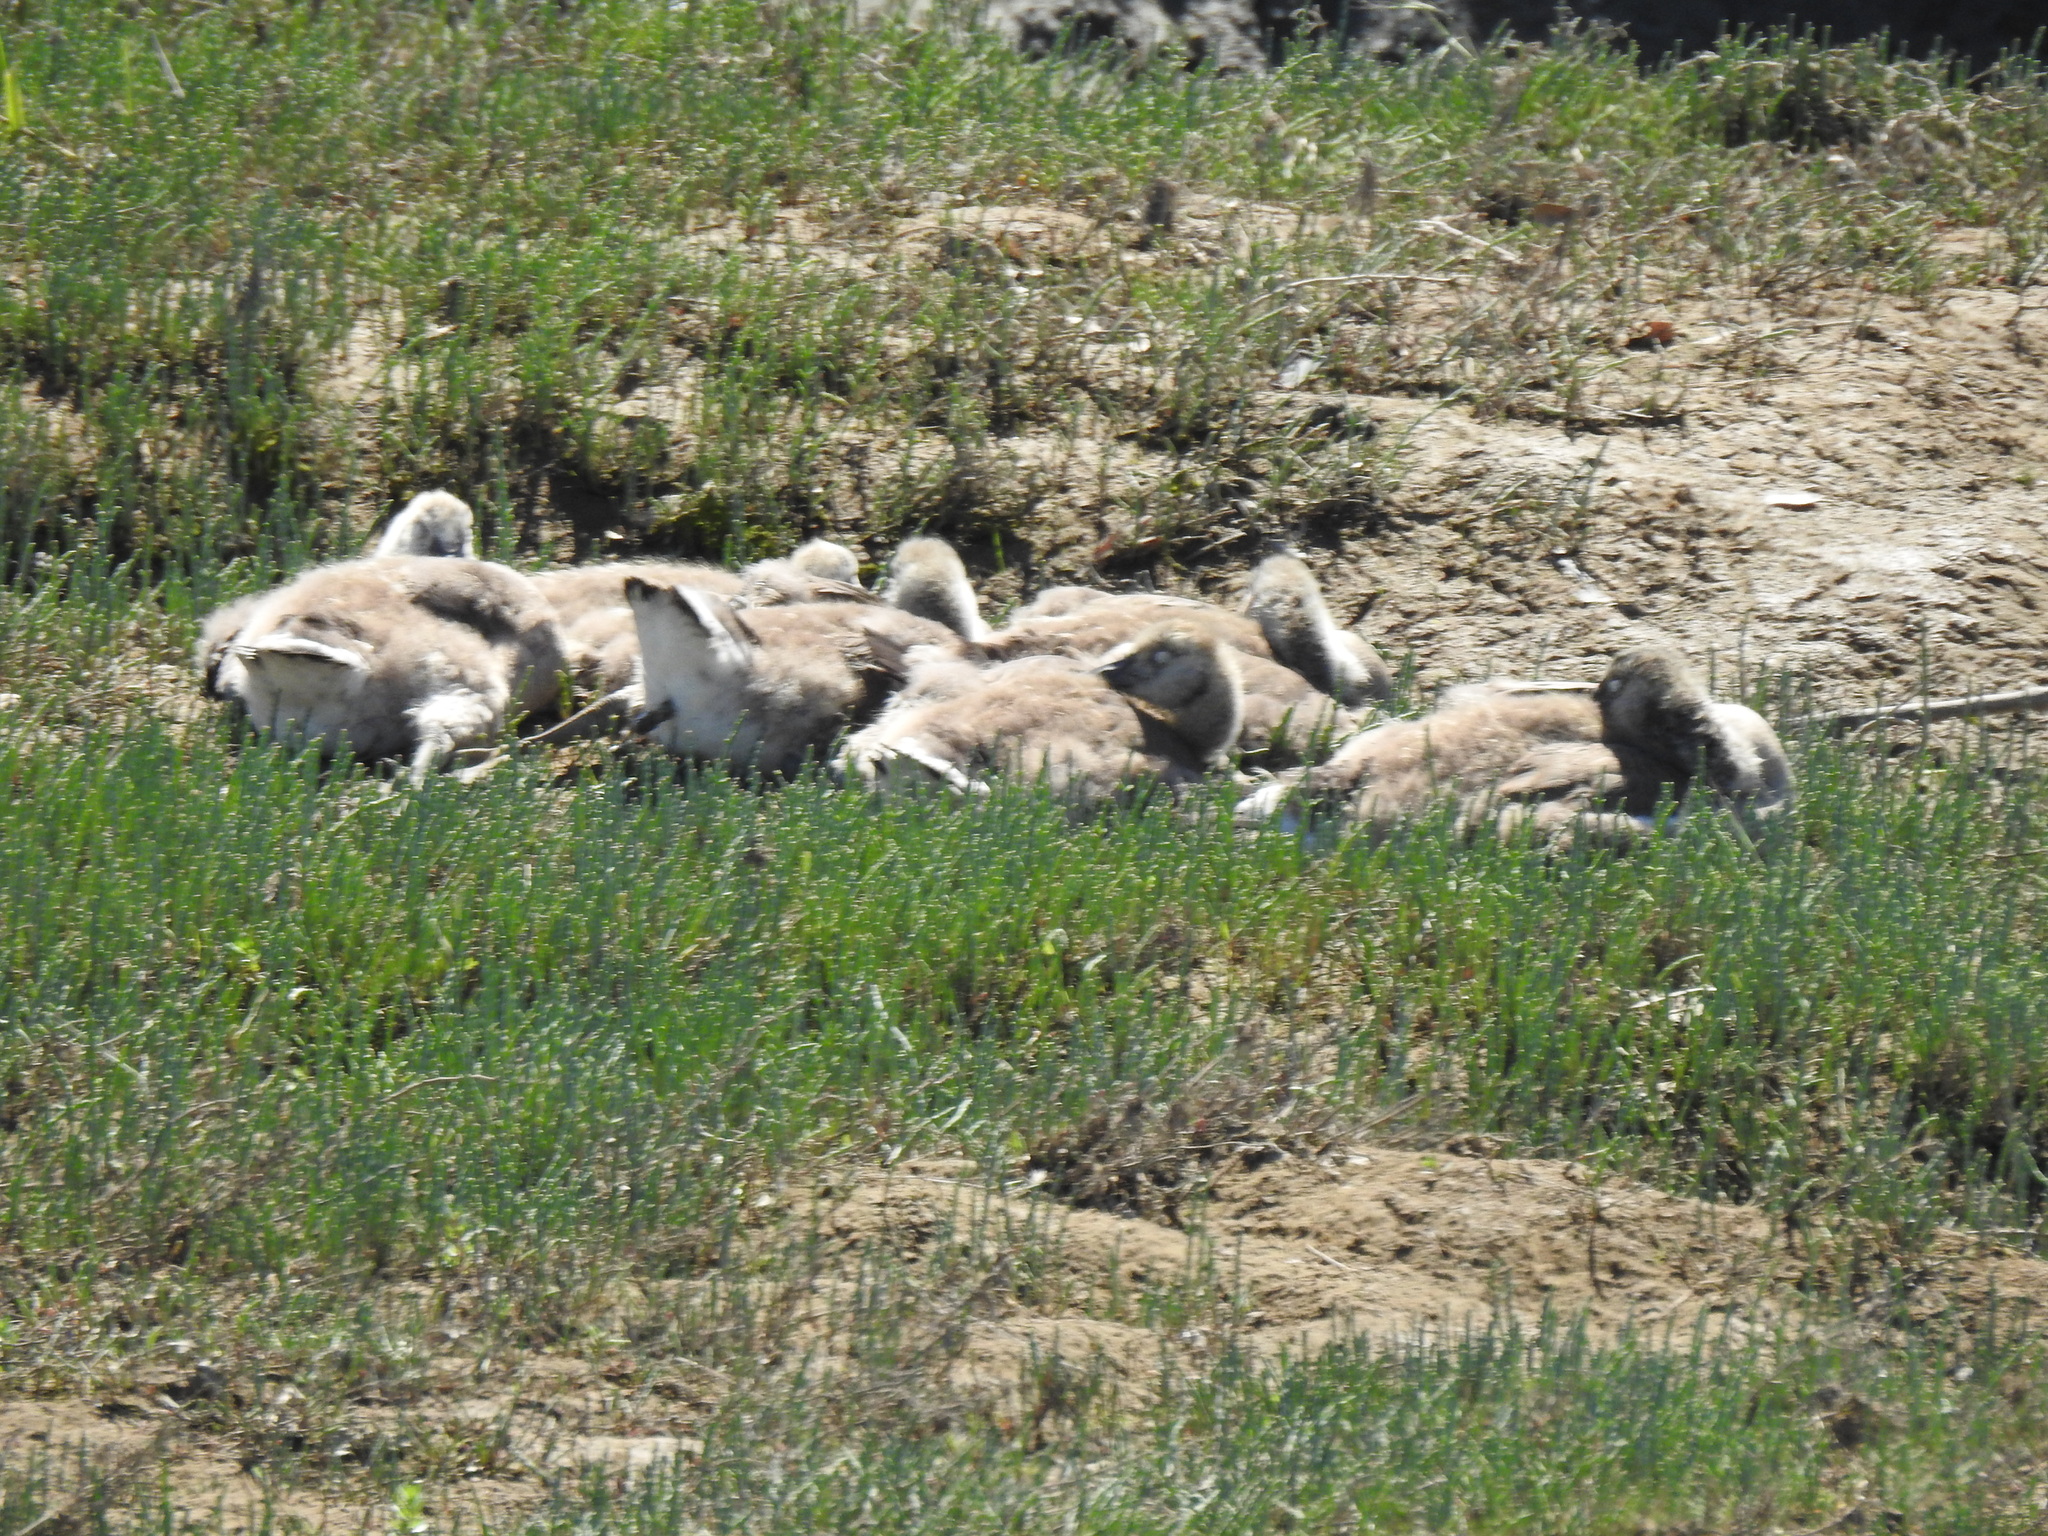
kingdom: Animalia
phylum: Chordata
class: Aves
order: Anseriformes
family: Anatidae
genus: Branta
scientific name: Branta canadensis
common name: Canada goose
